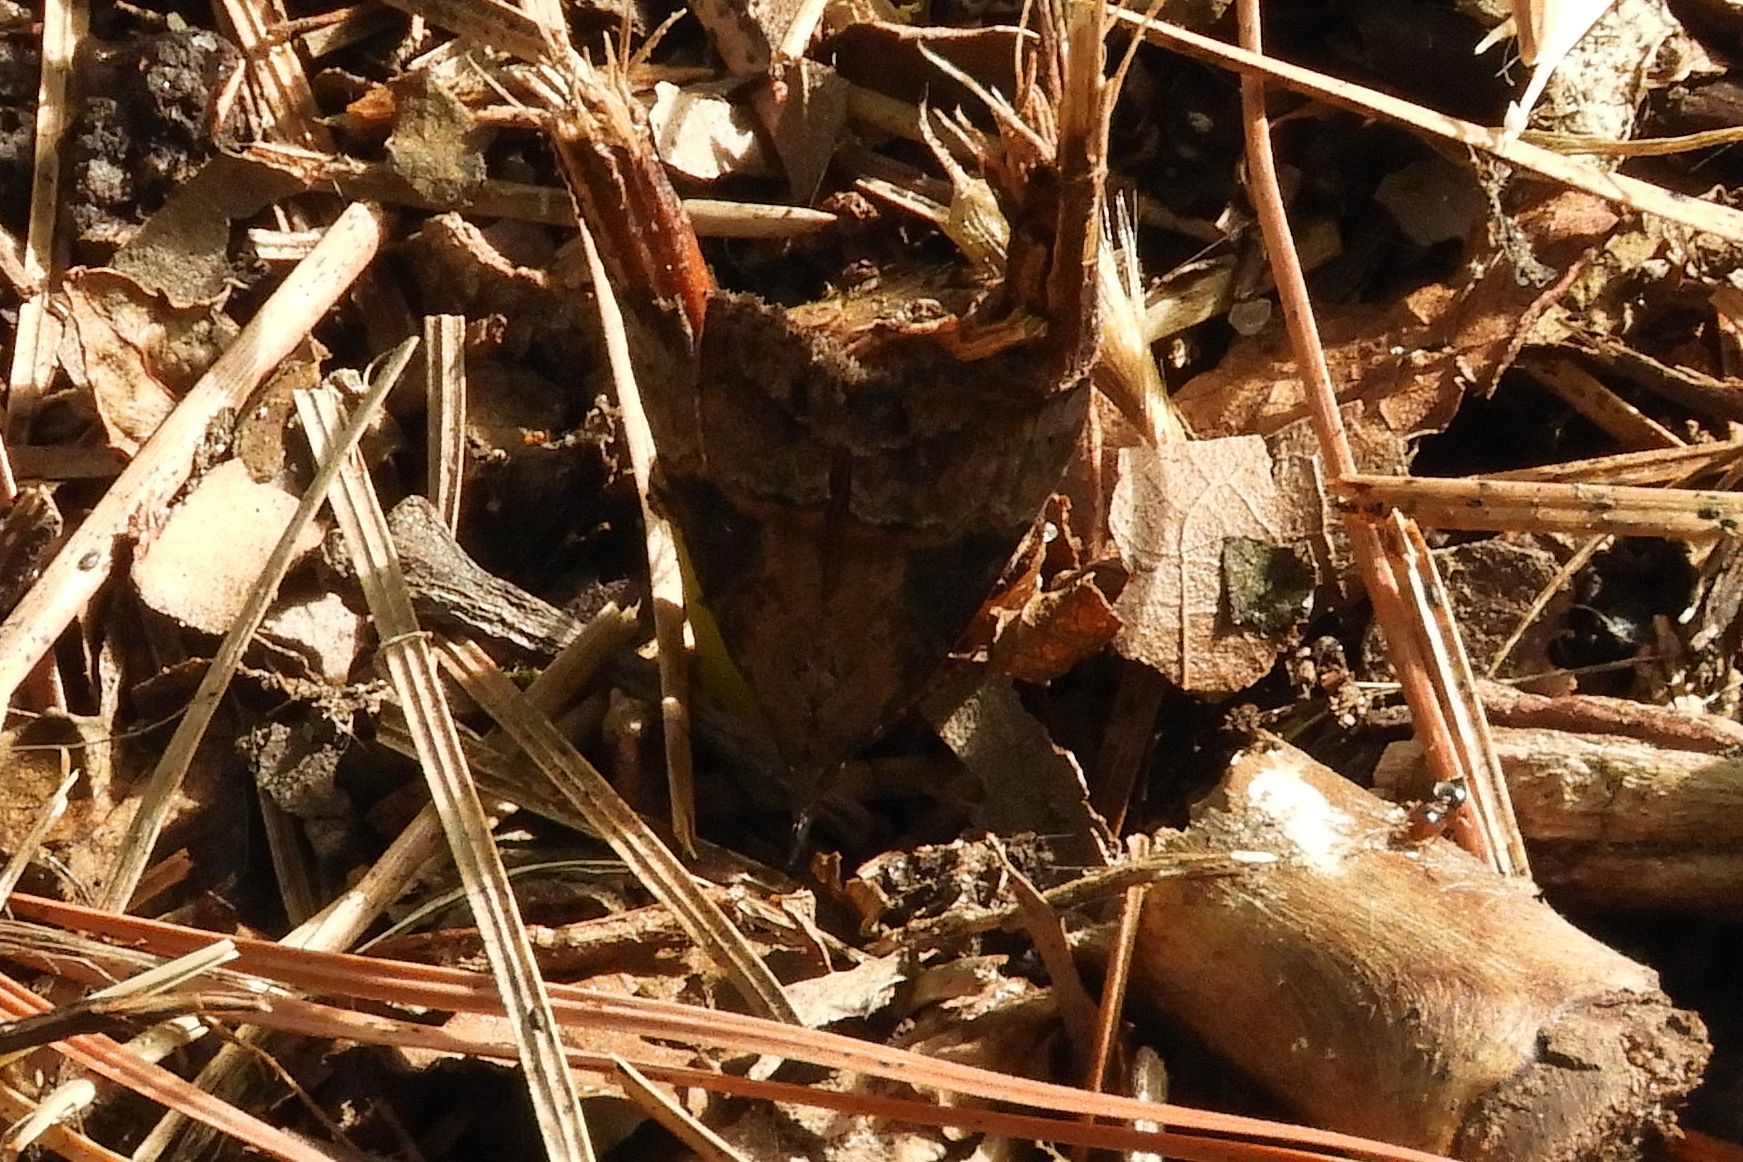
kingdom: Animalia
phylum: Arthropoda
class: Insecta
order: Lepidoptera
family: Erebidae
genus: Hypena
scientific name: Hypena scabra
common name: Green cloverworm
